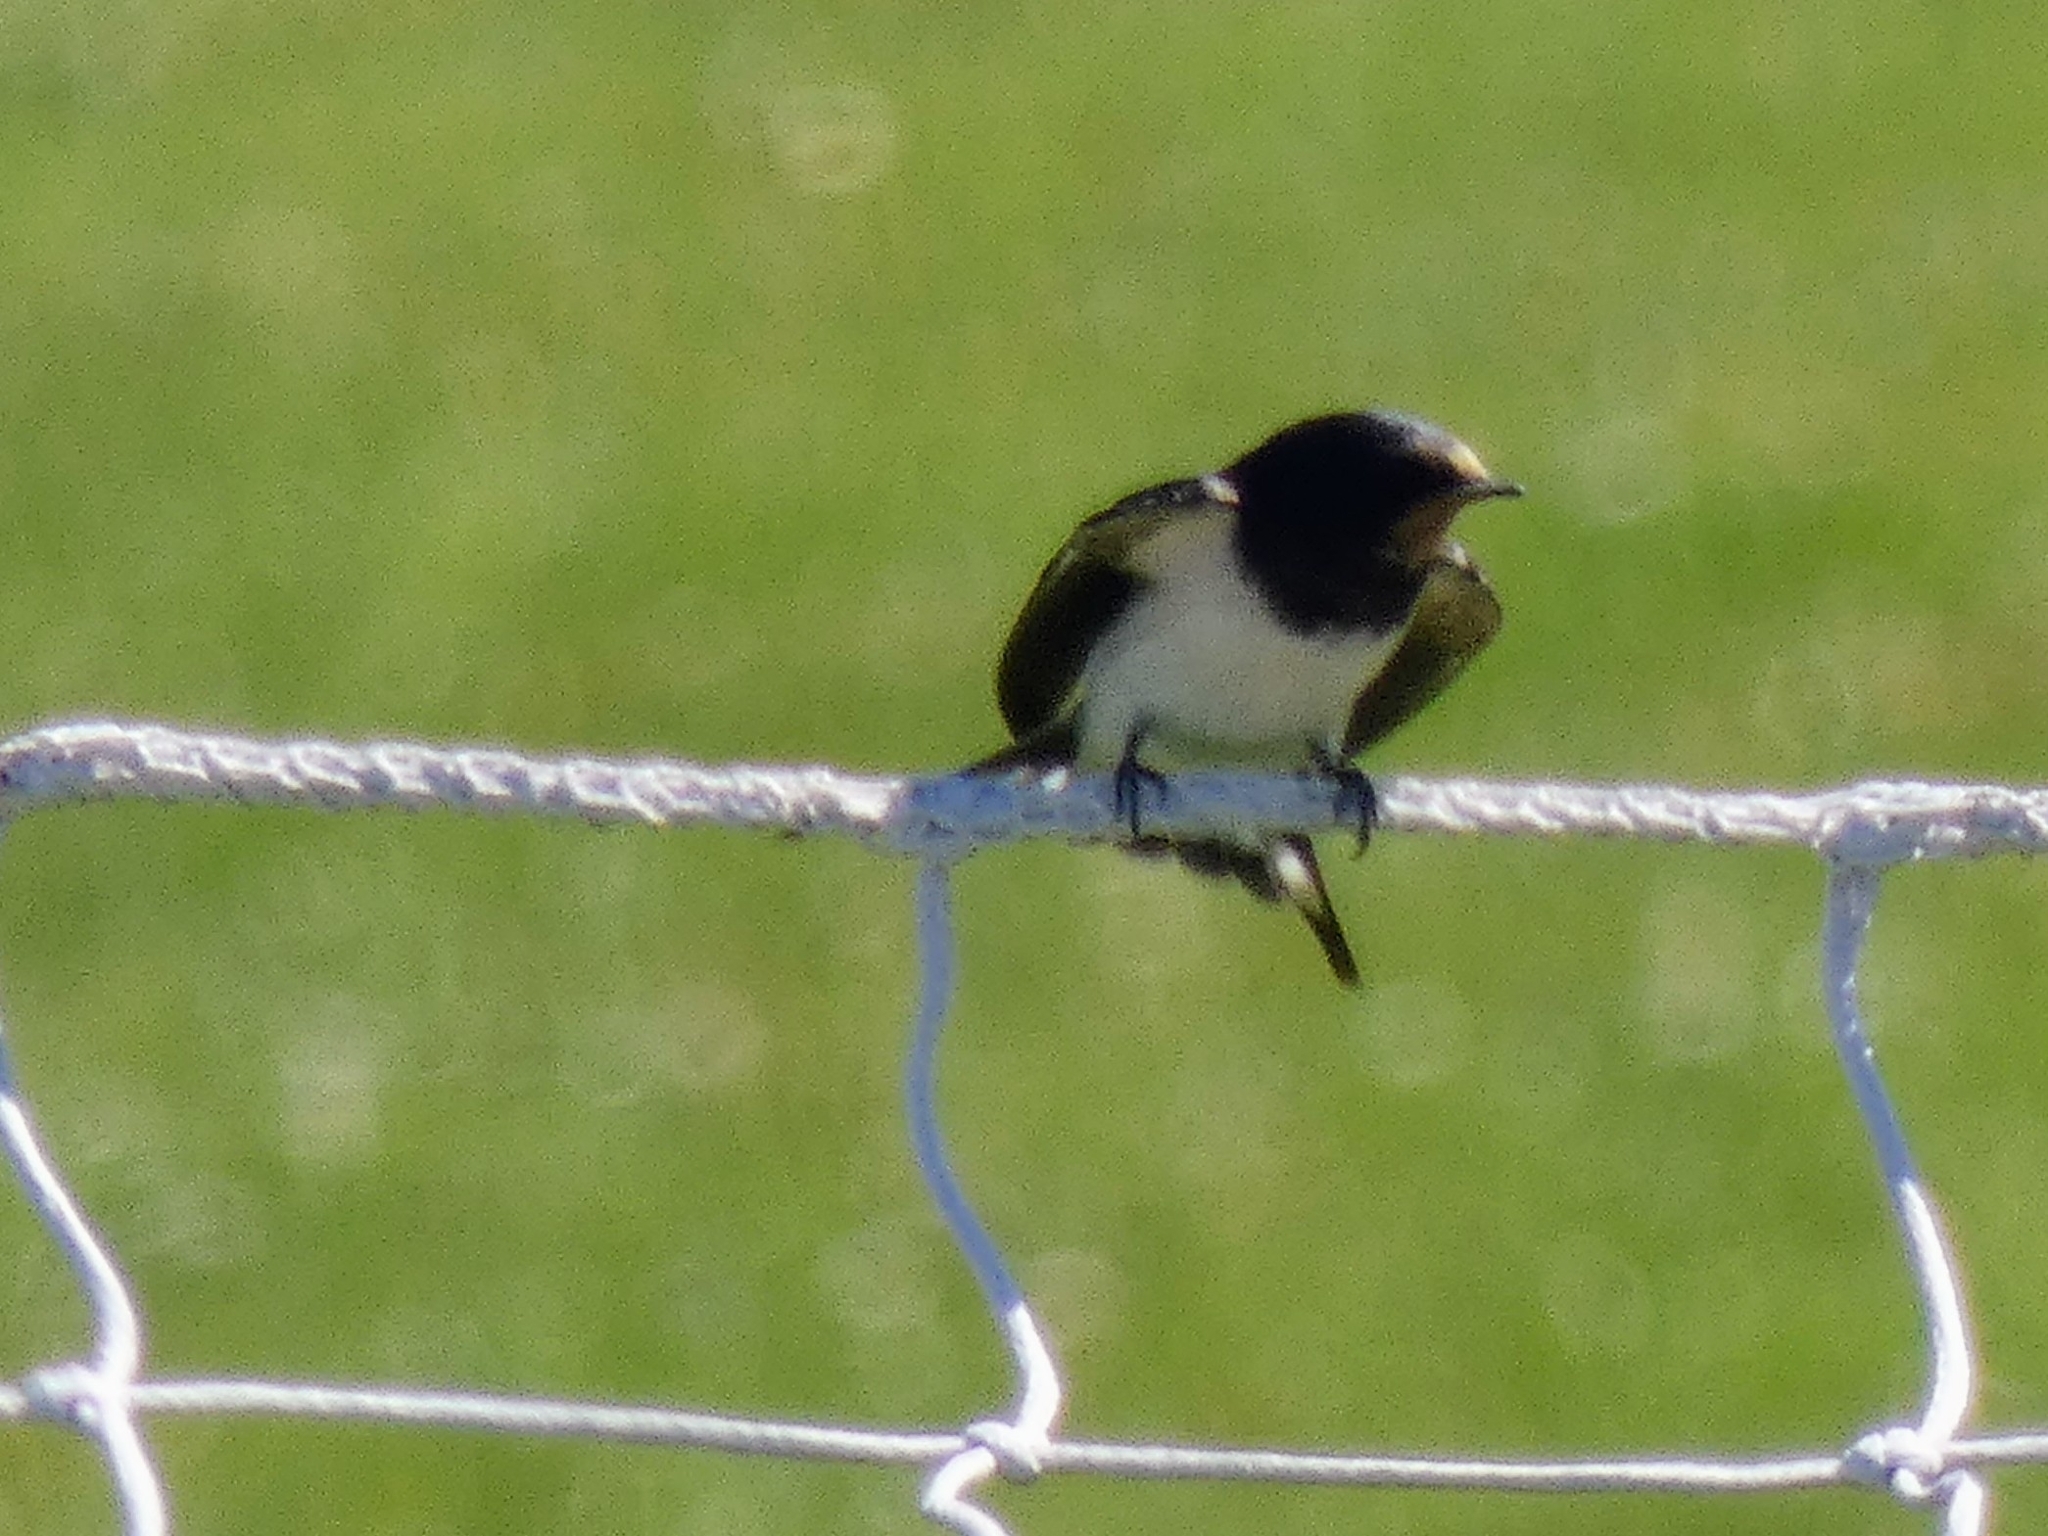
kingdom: Animalia
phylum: Chordata
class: Aves
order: Passeriformes
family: Hirundinidae
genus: Hirundo
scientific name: Hirundo rustica
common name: Barn swallow
